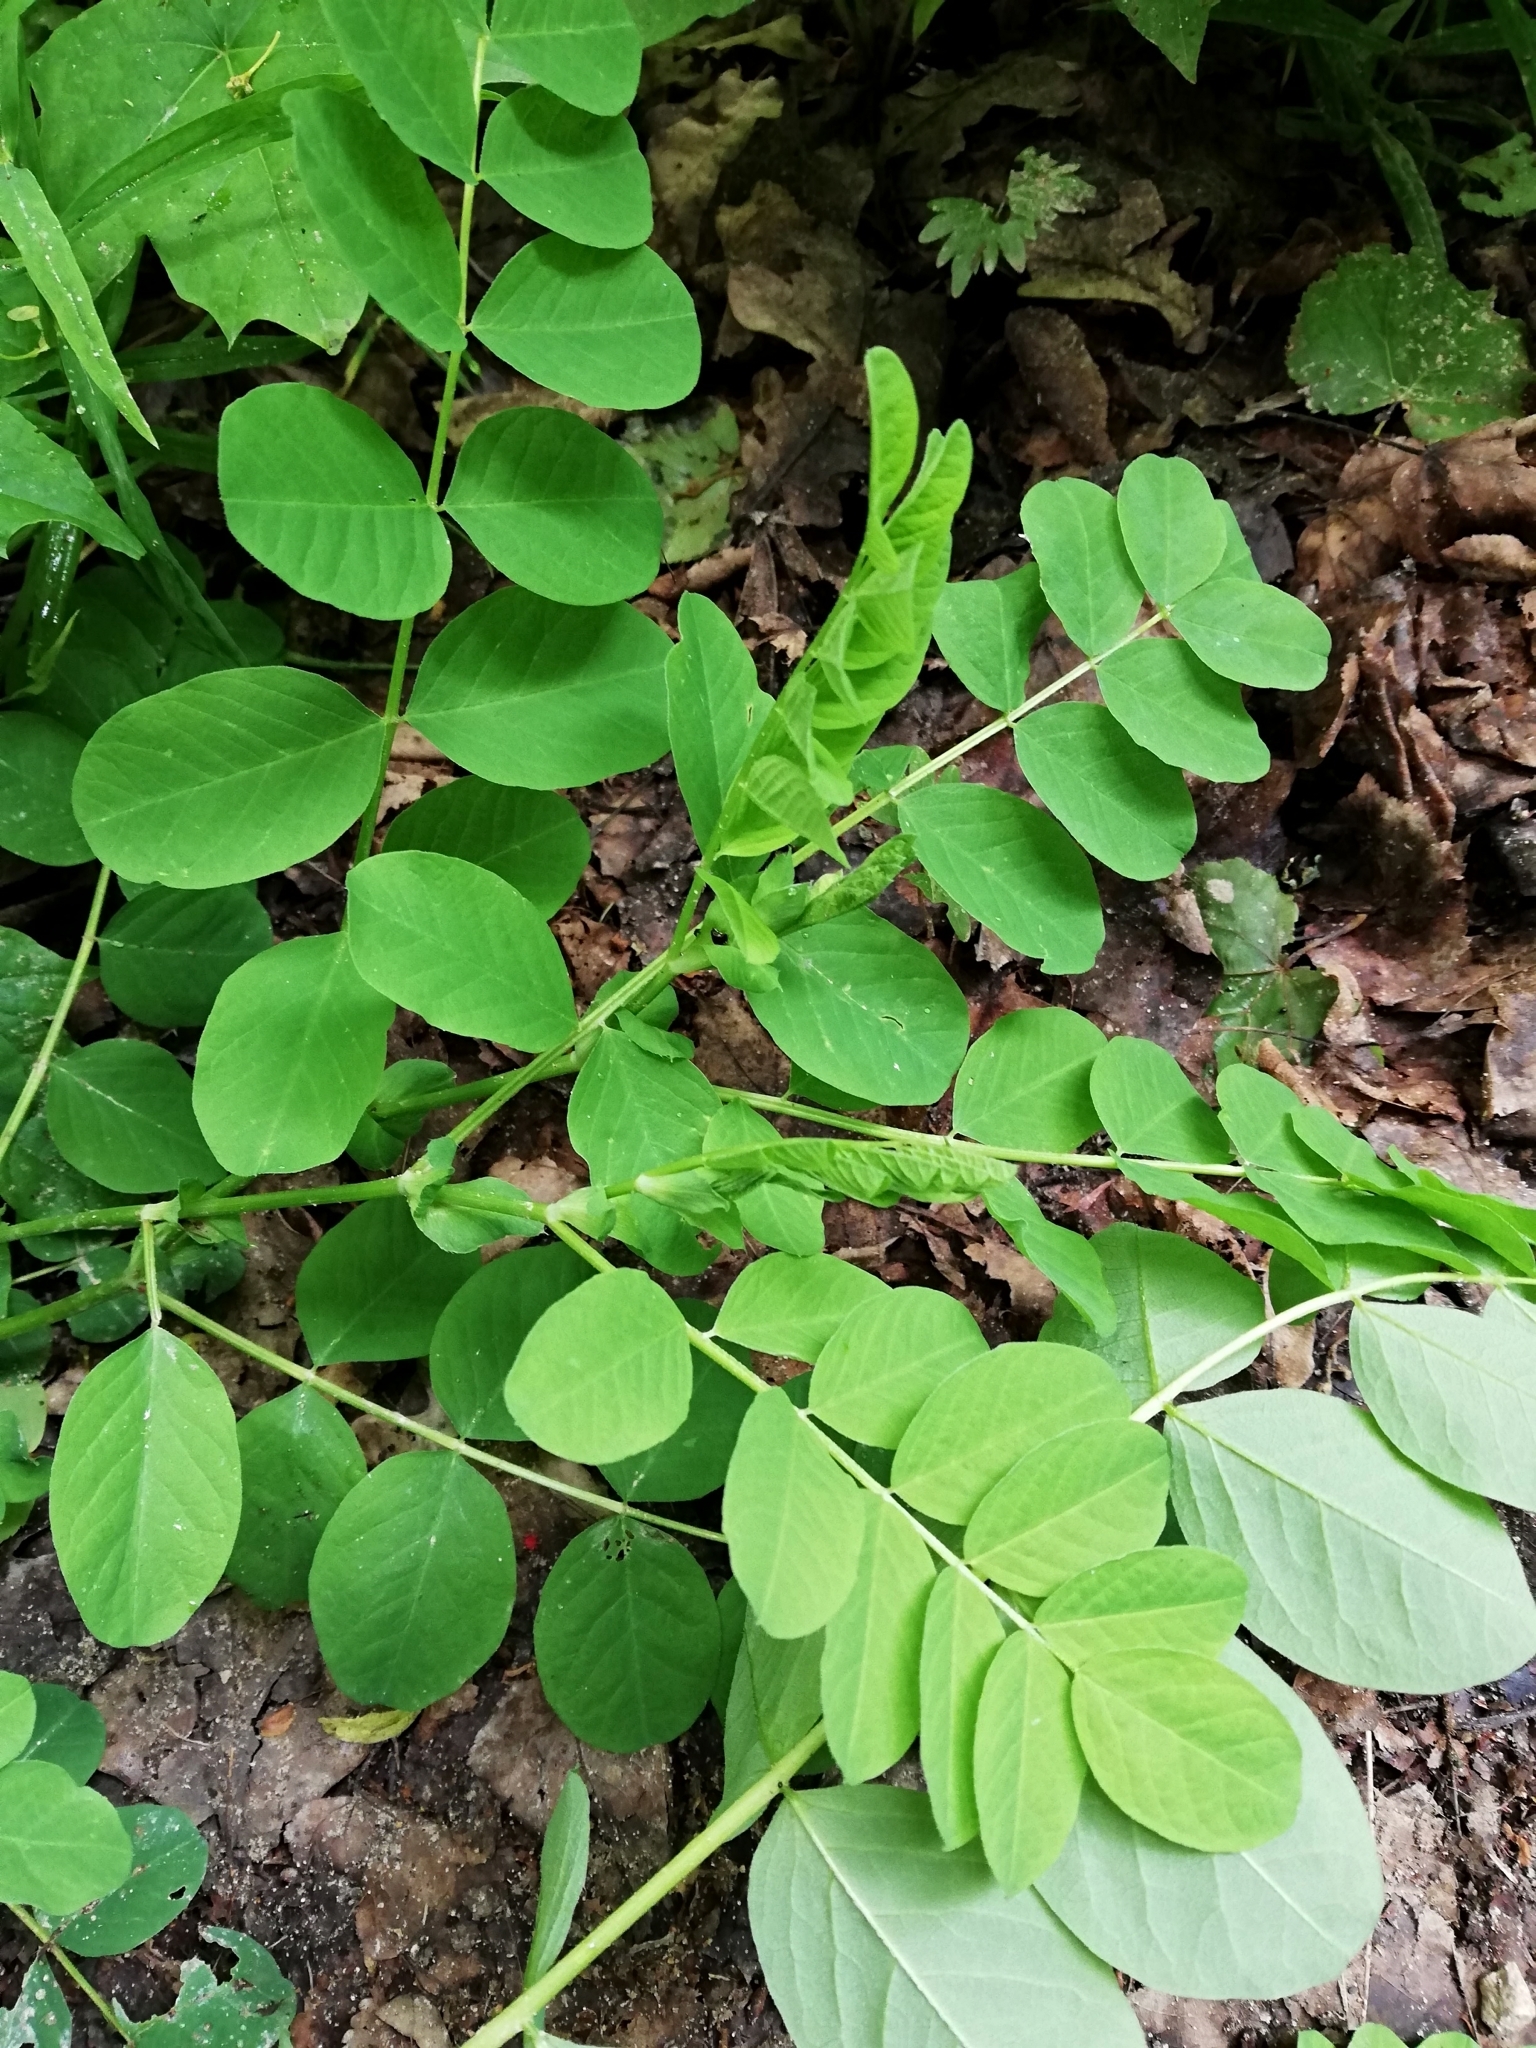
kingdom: Plantae
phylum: Tracheophyta
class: Magnoliopsida
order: Fabales
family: Fabaceae
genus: Astragalus
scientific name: Astragalus glycyphyllos
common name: Wild liquorice
